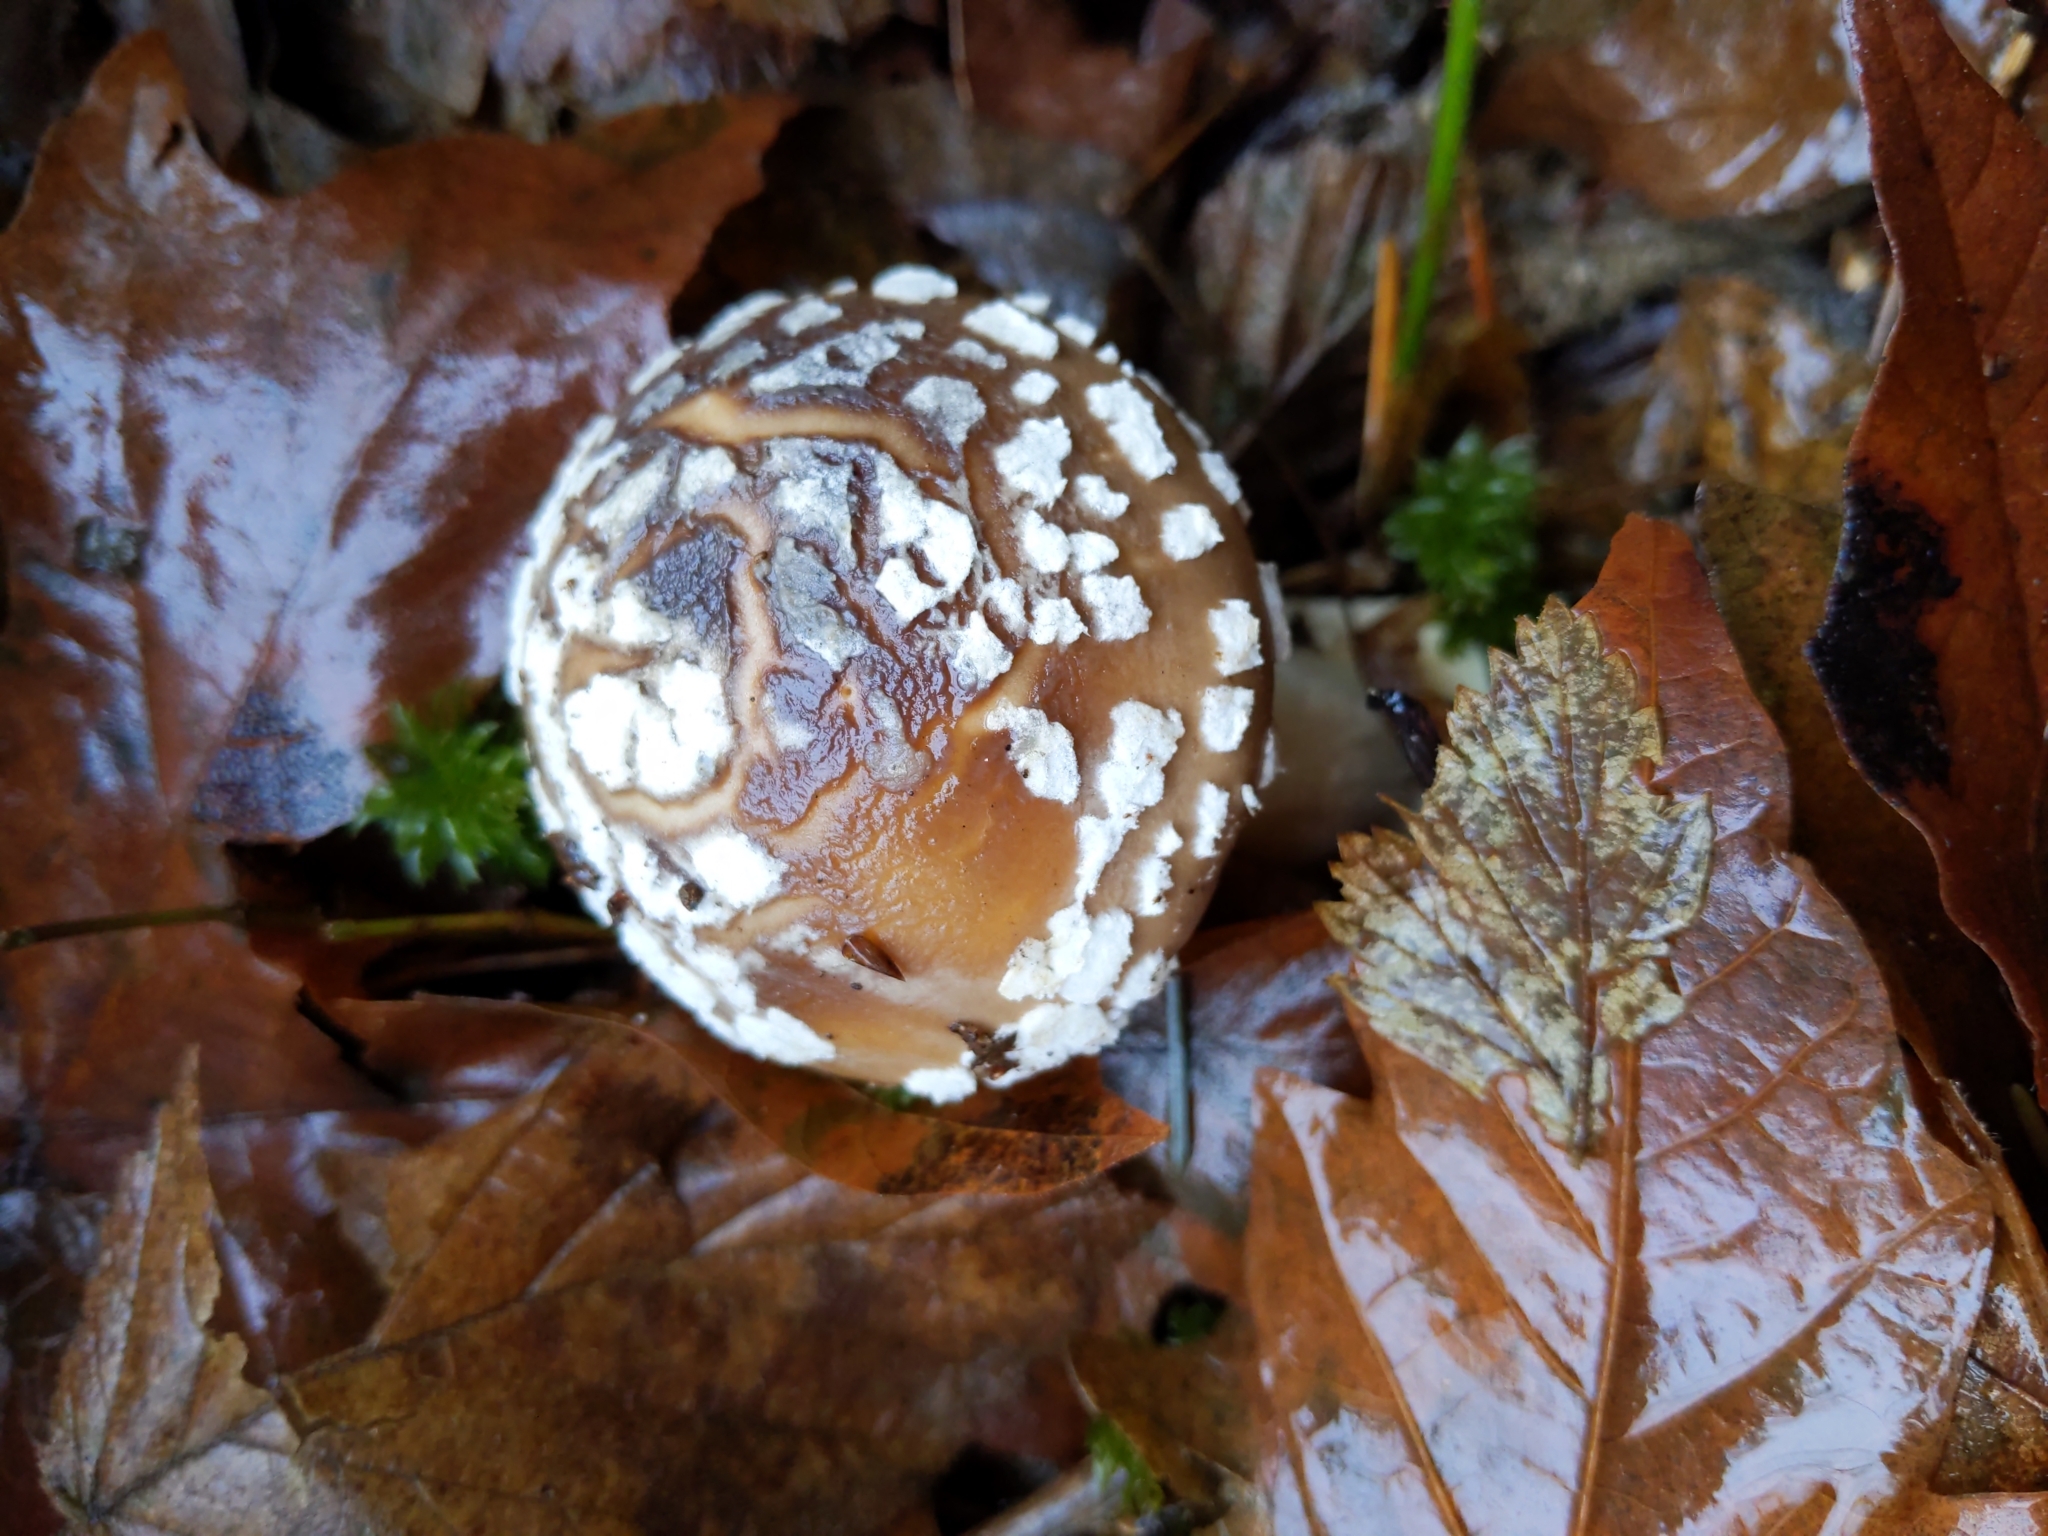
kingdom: Fungi
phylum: Basidiomycota
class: Agaricomycetes
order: Agaricales
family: Amanitaceae
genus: Amanita
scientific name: Amanita pantherinoides
